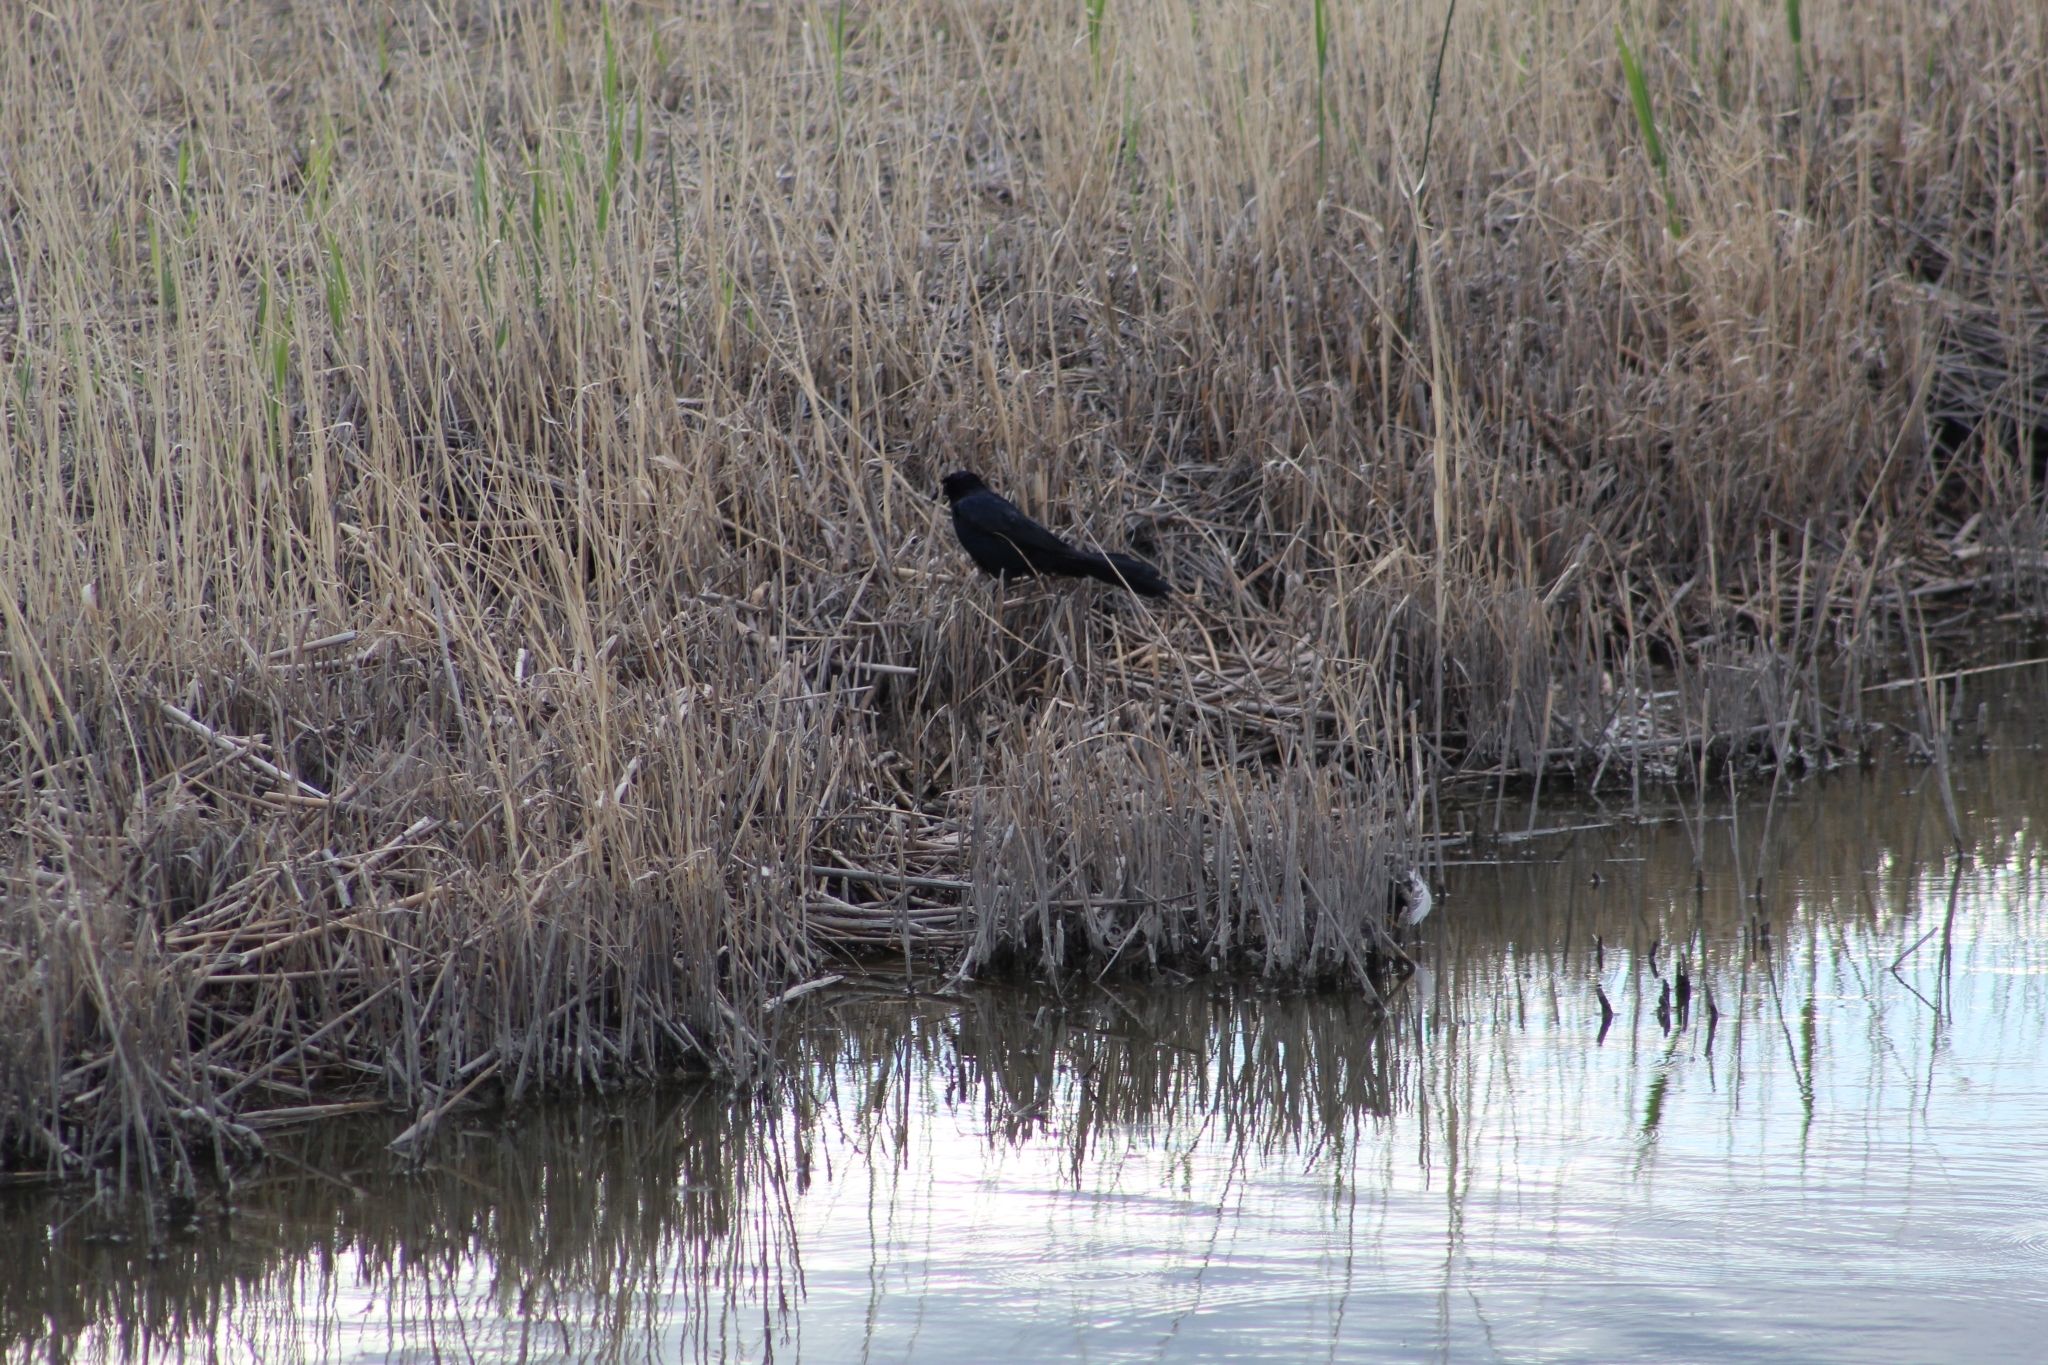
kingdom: Animalia
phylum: Chordata
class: Aves
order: Passeriformes
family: Icteridae
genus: Quiscalus
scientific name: Quiscalus mexicanus
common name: Great-tailed grackle
